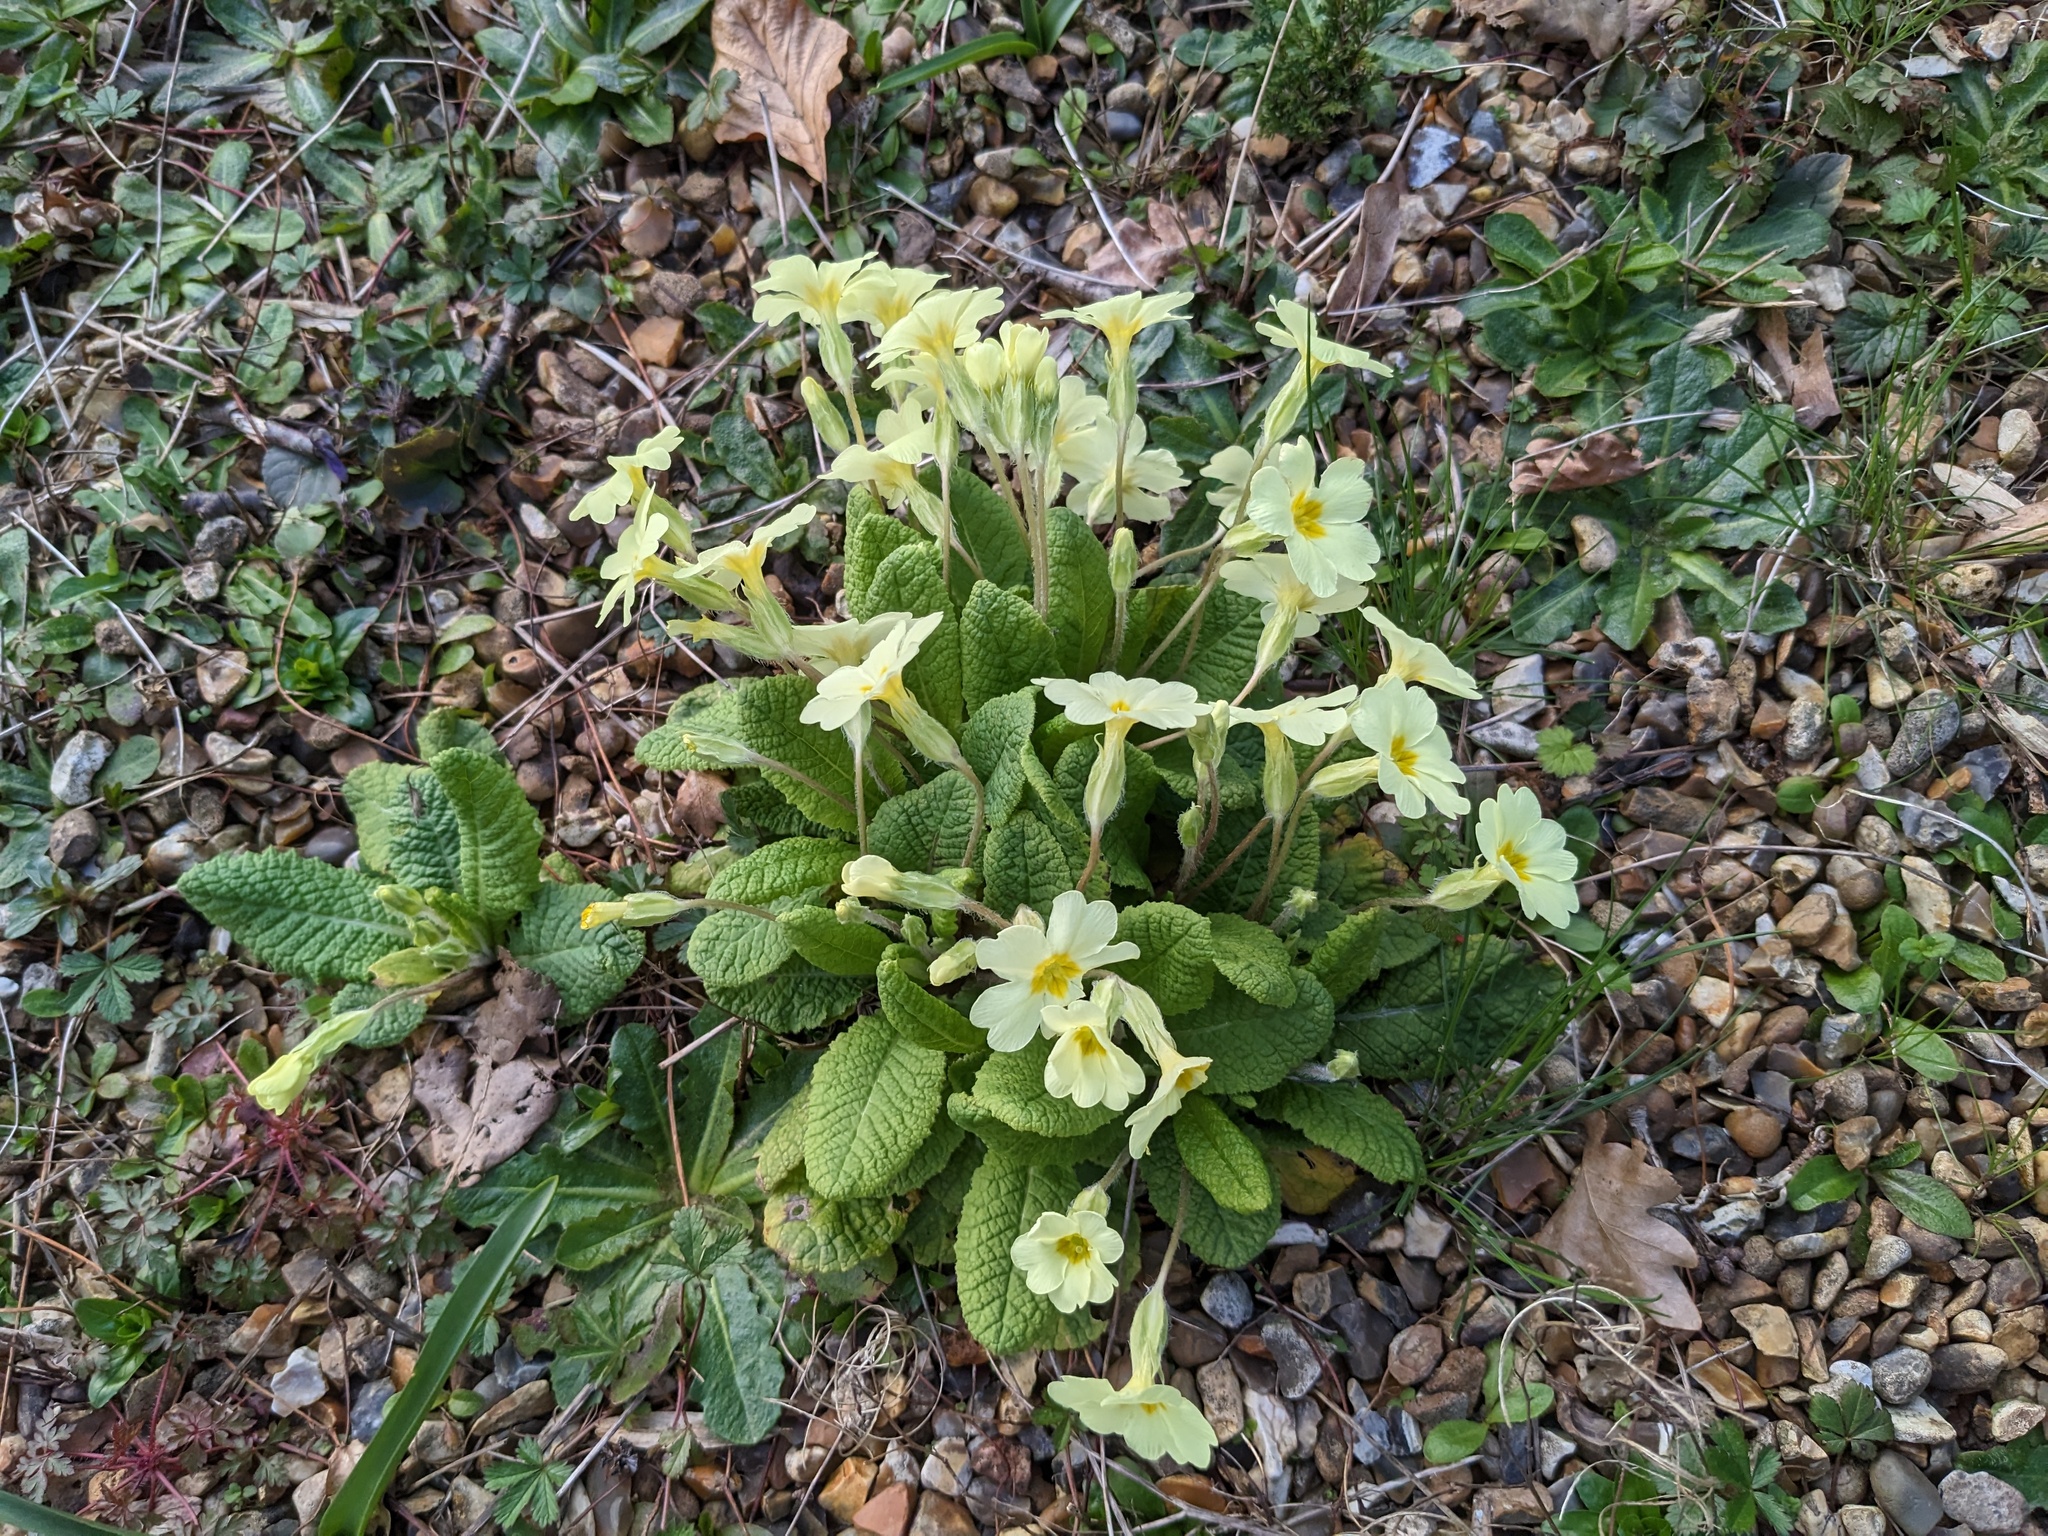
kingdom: Plantae
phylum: Tracheophyta
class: Magnoliopsida
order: Ericales
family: Primulaceae
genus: Primula
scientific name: Primula vulgaris
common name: Primrose
